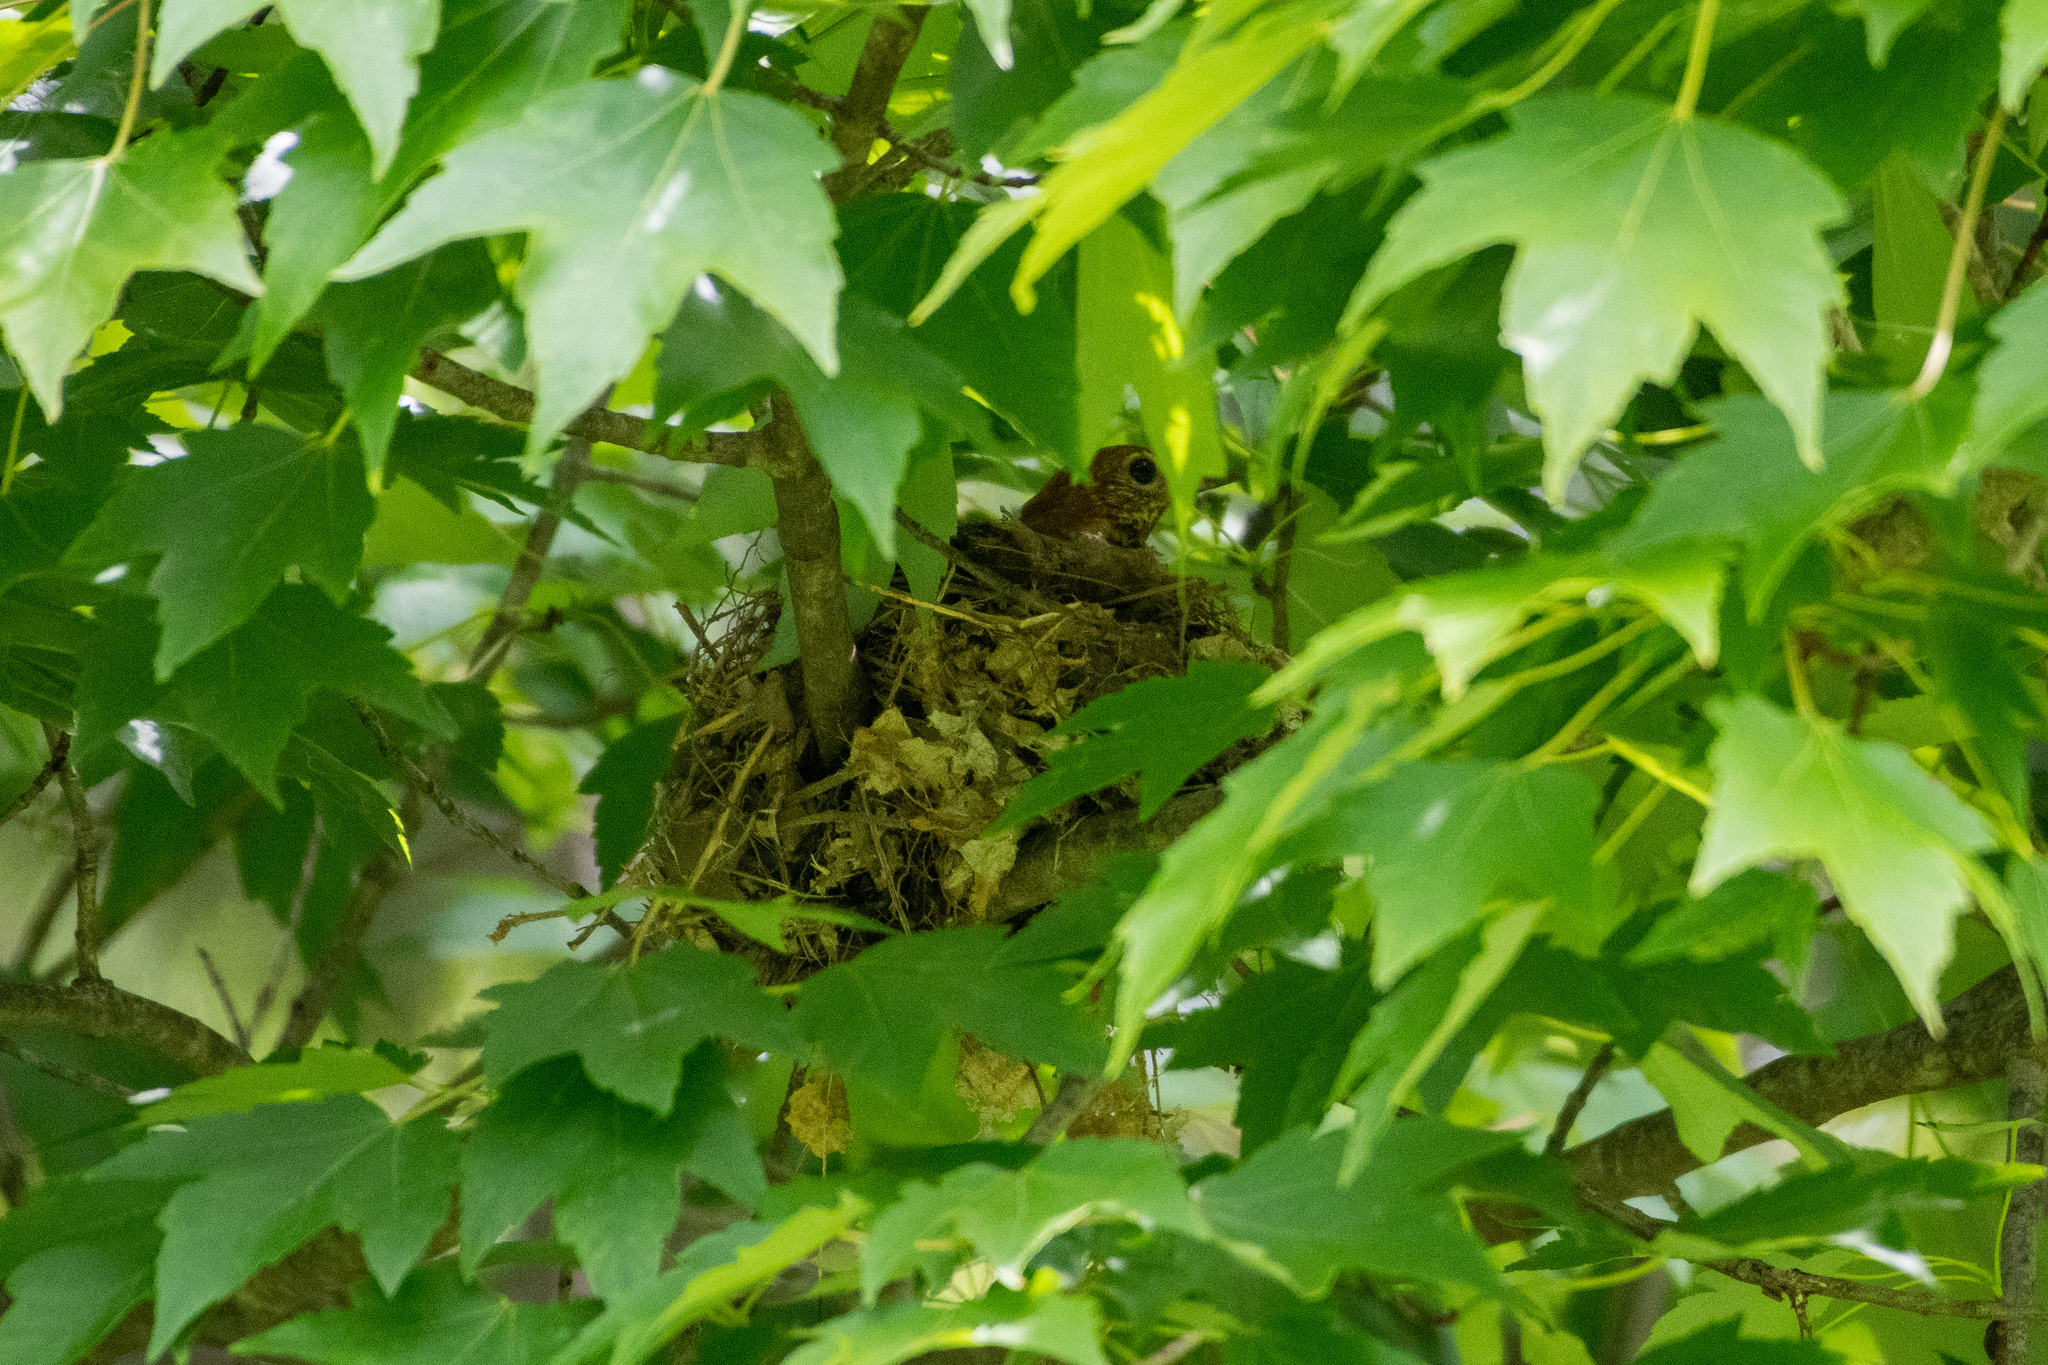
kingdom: Animalia
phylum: Chordata
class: Aves
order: Passeriformes
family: Turdidae
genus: Hylocichla
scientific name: Hylocichla mustelina
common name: Wood thrush
